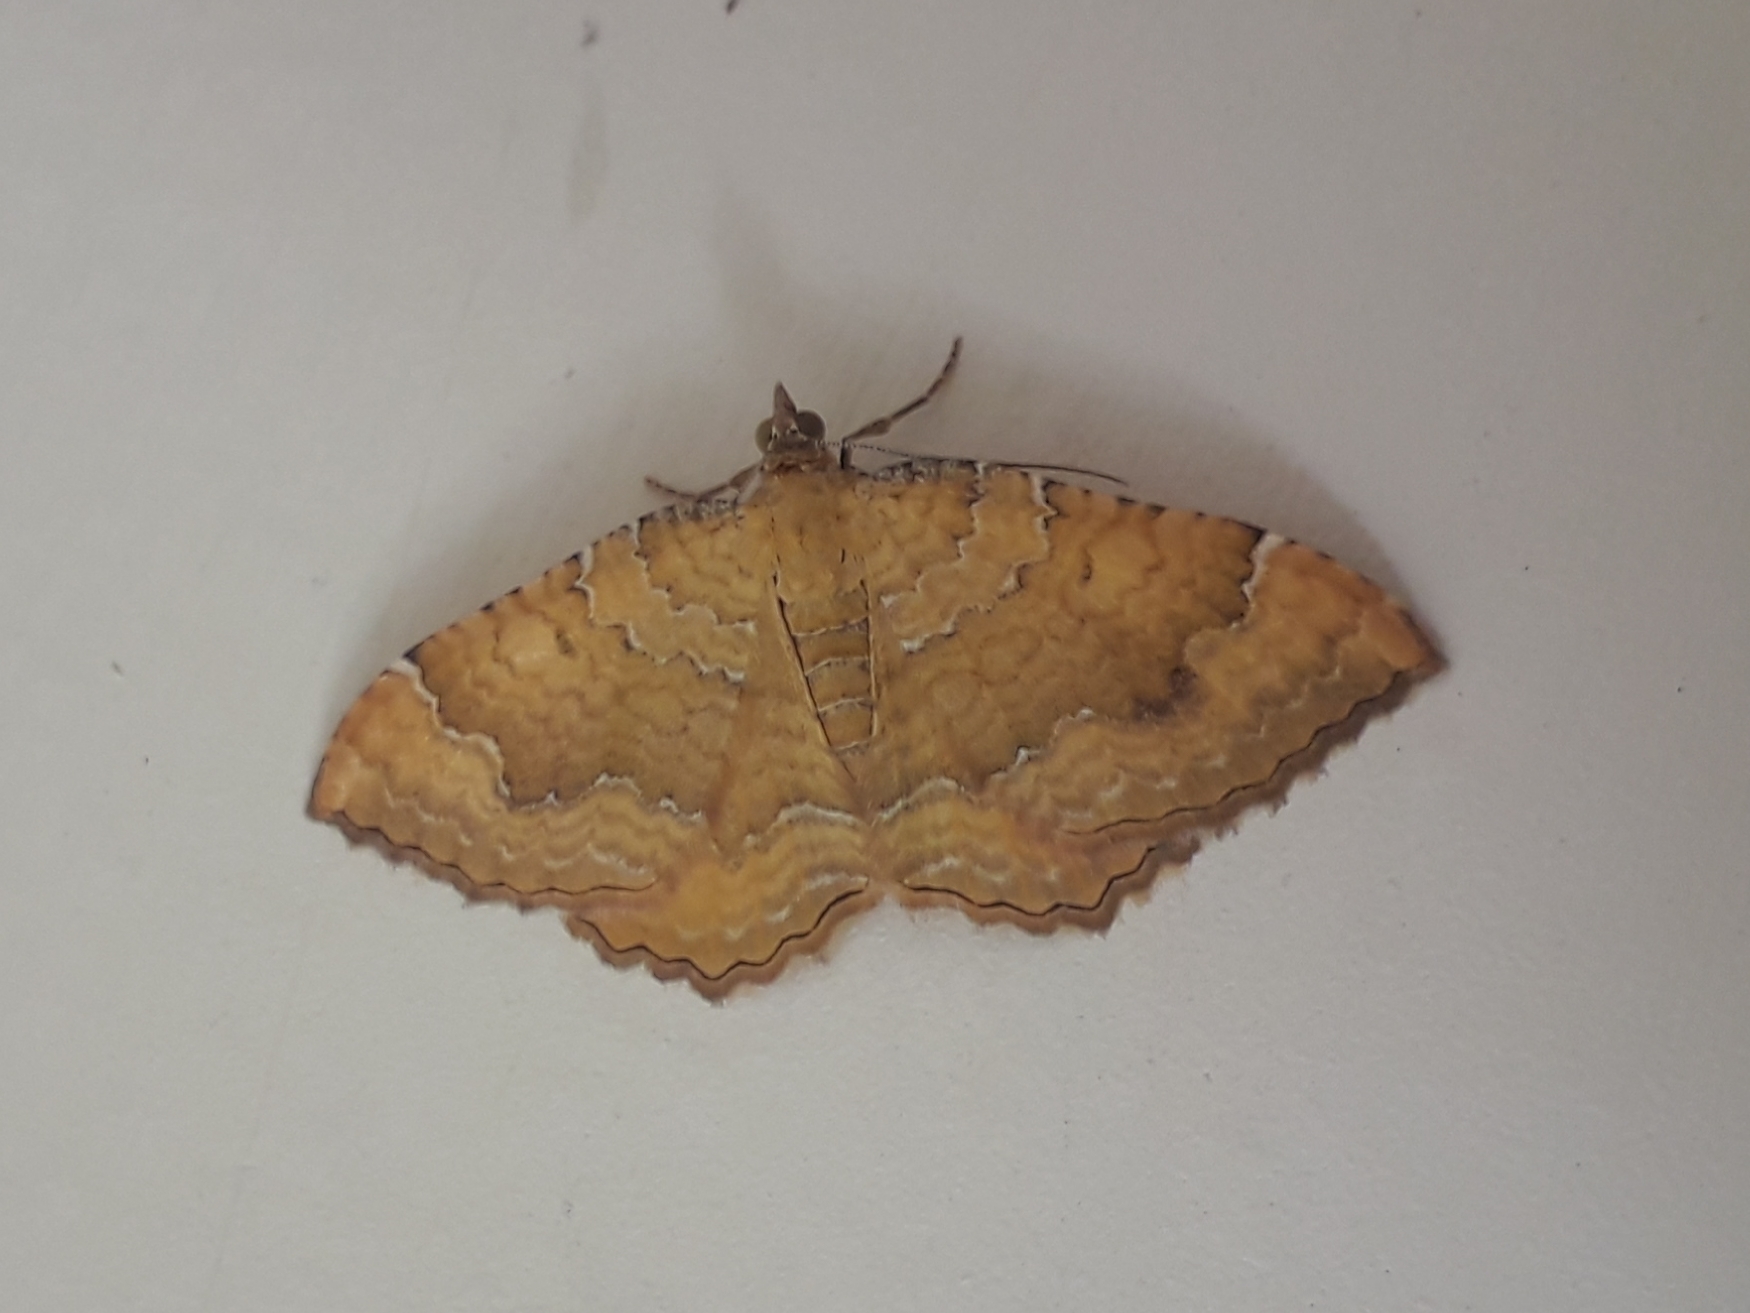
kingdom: Animalia
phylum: Arthropoda
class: Insecta
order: Lepidoptera
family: Geometridae
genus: Camptogramma
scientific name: Camptogramma bilineata
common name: Yellow shell
